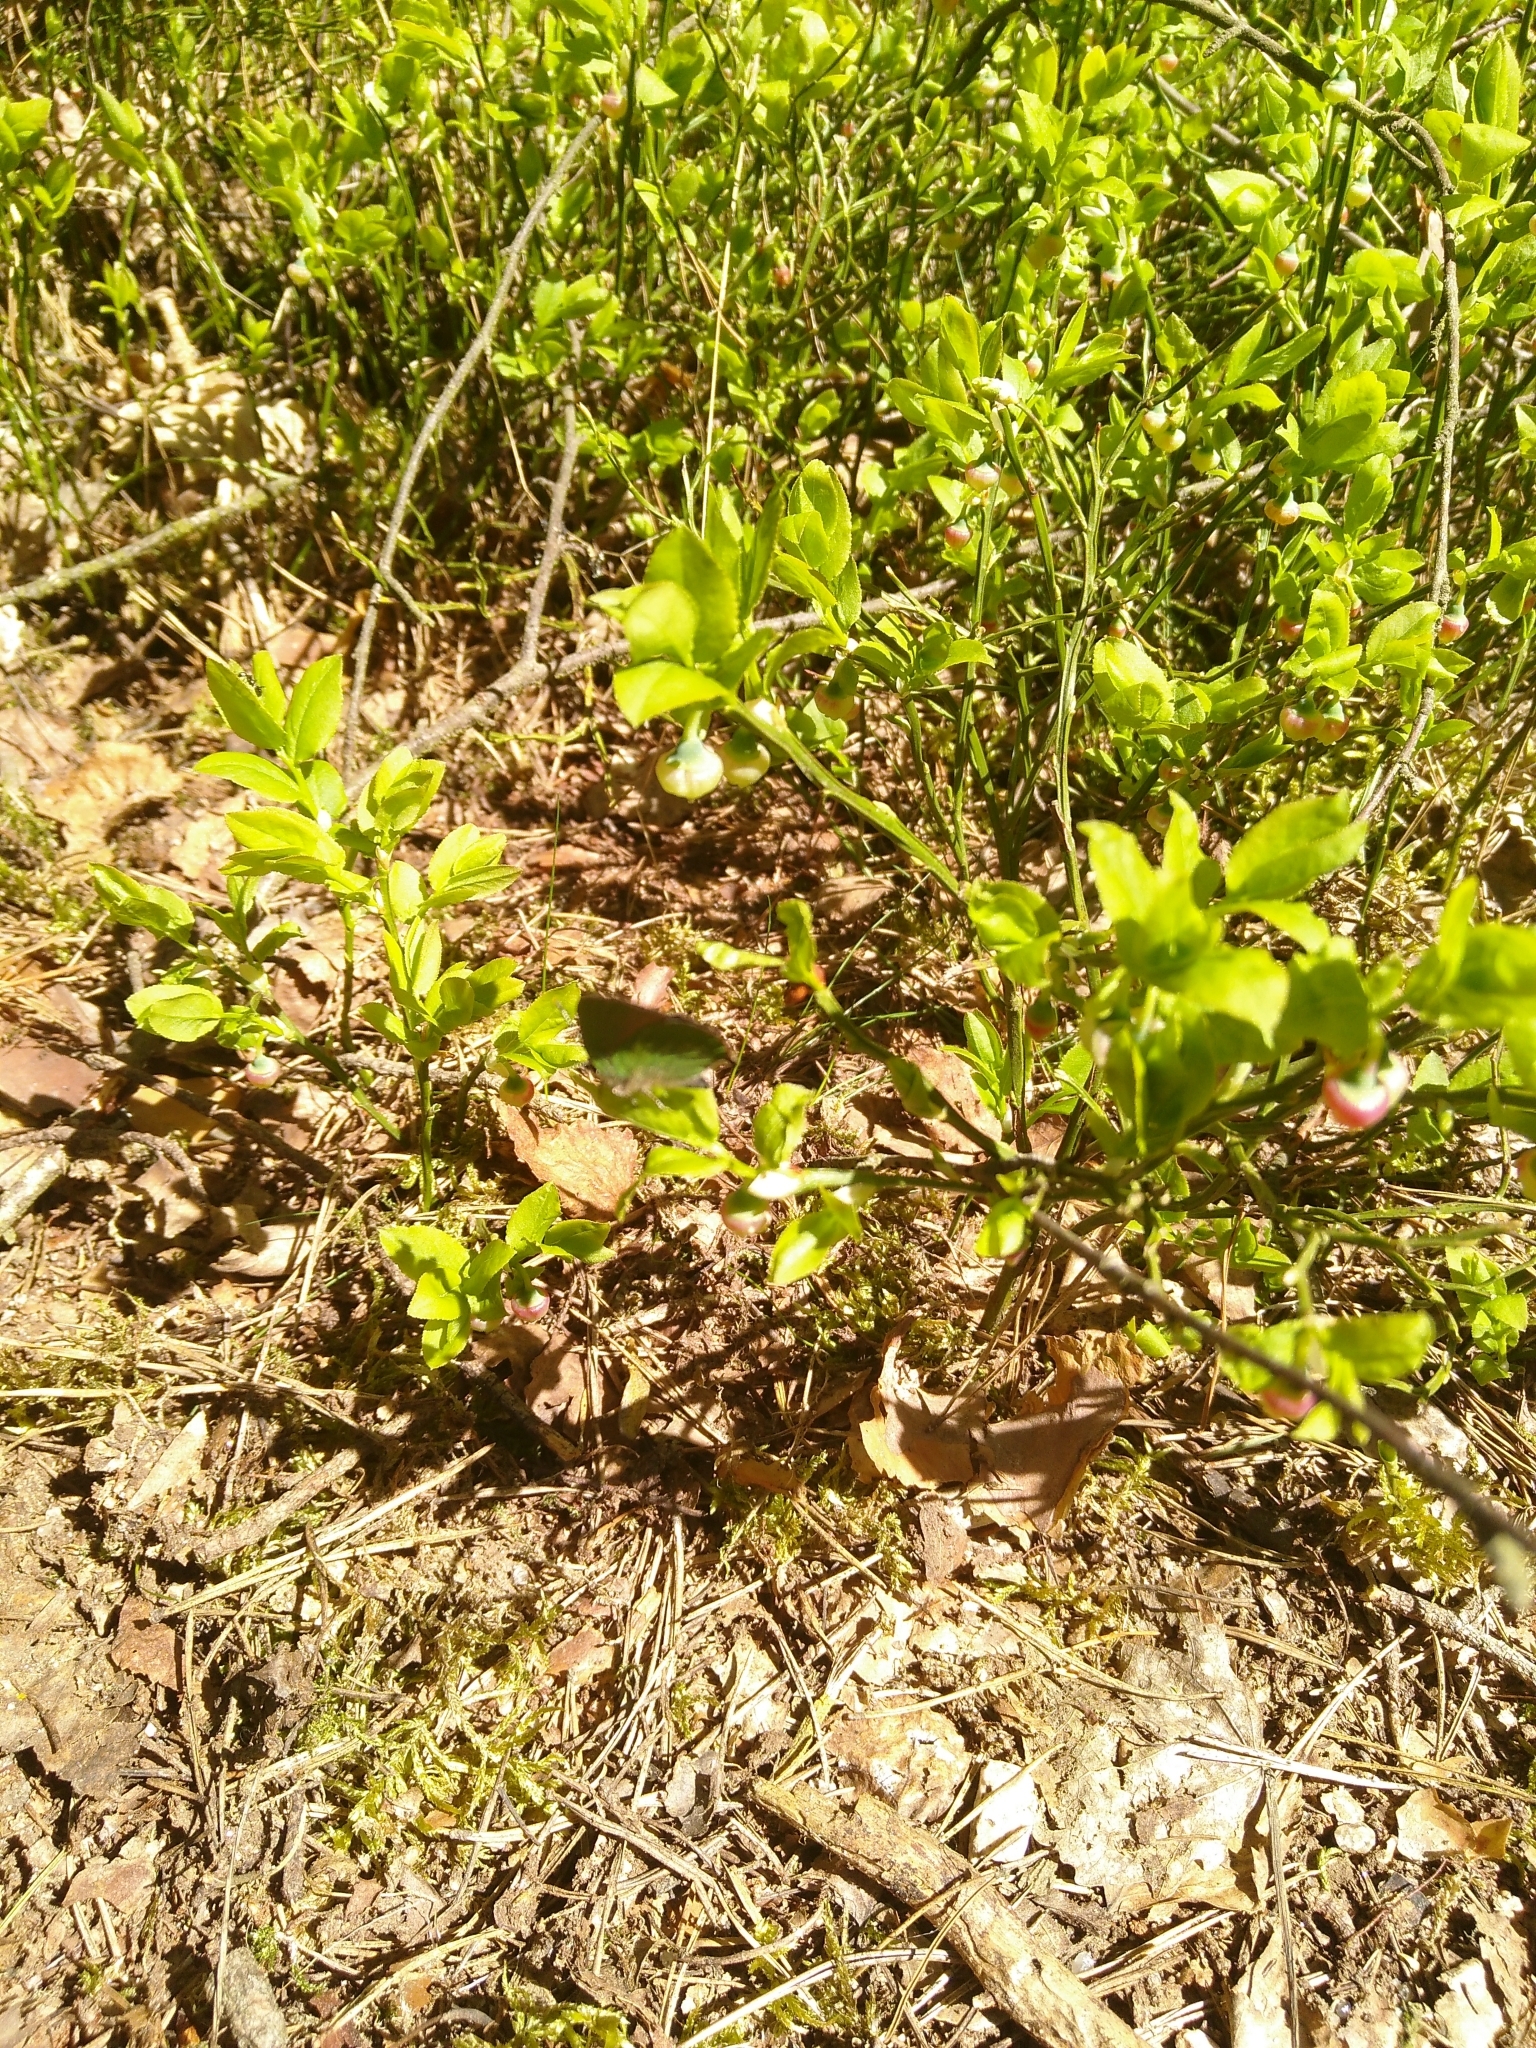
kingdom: Plantae
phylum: Tracheophyta
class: Magnoliopsida
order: Ericales
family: Ericaceae
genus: Vaccinium
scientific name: Vaccinium myrtillus
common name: Bilberry
